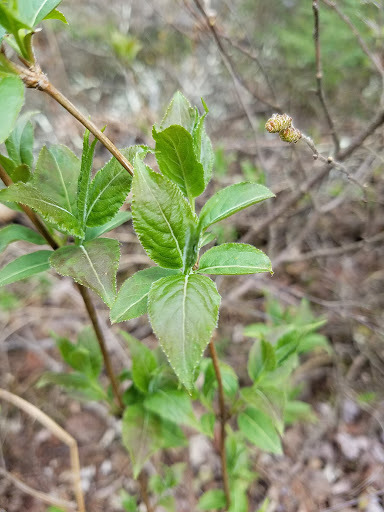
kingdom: Plantae
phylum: Tracheophyta
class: Magnoliopsida
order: Dipsacales
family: Caprifoliaceae
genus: Diervilla
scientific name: Diervilla lonicera
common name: Bush-honeysuckle
